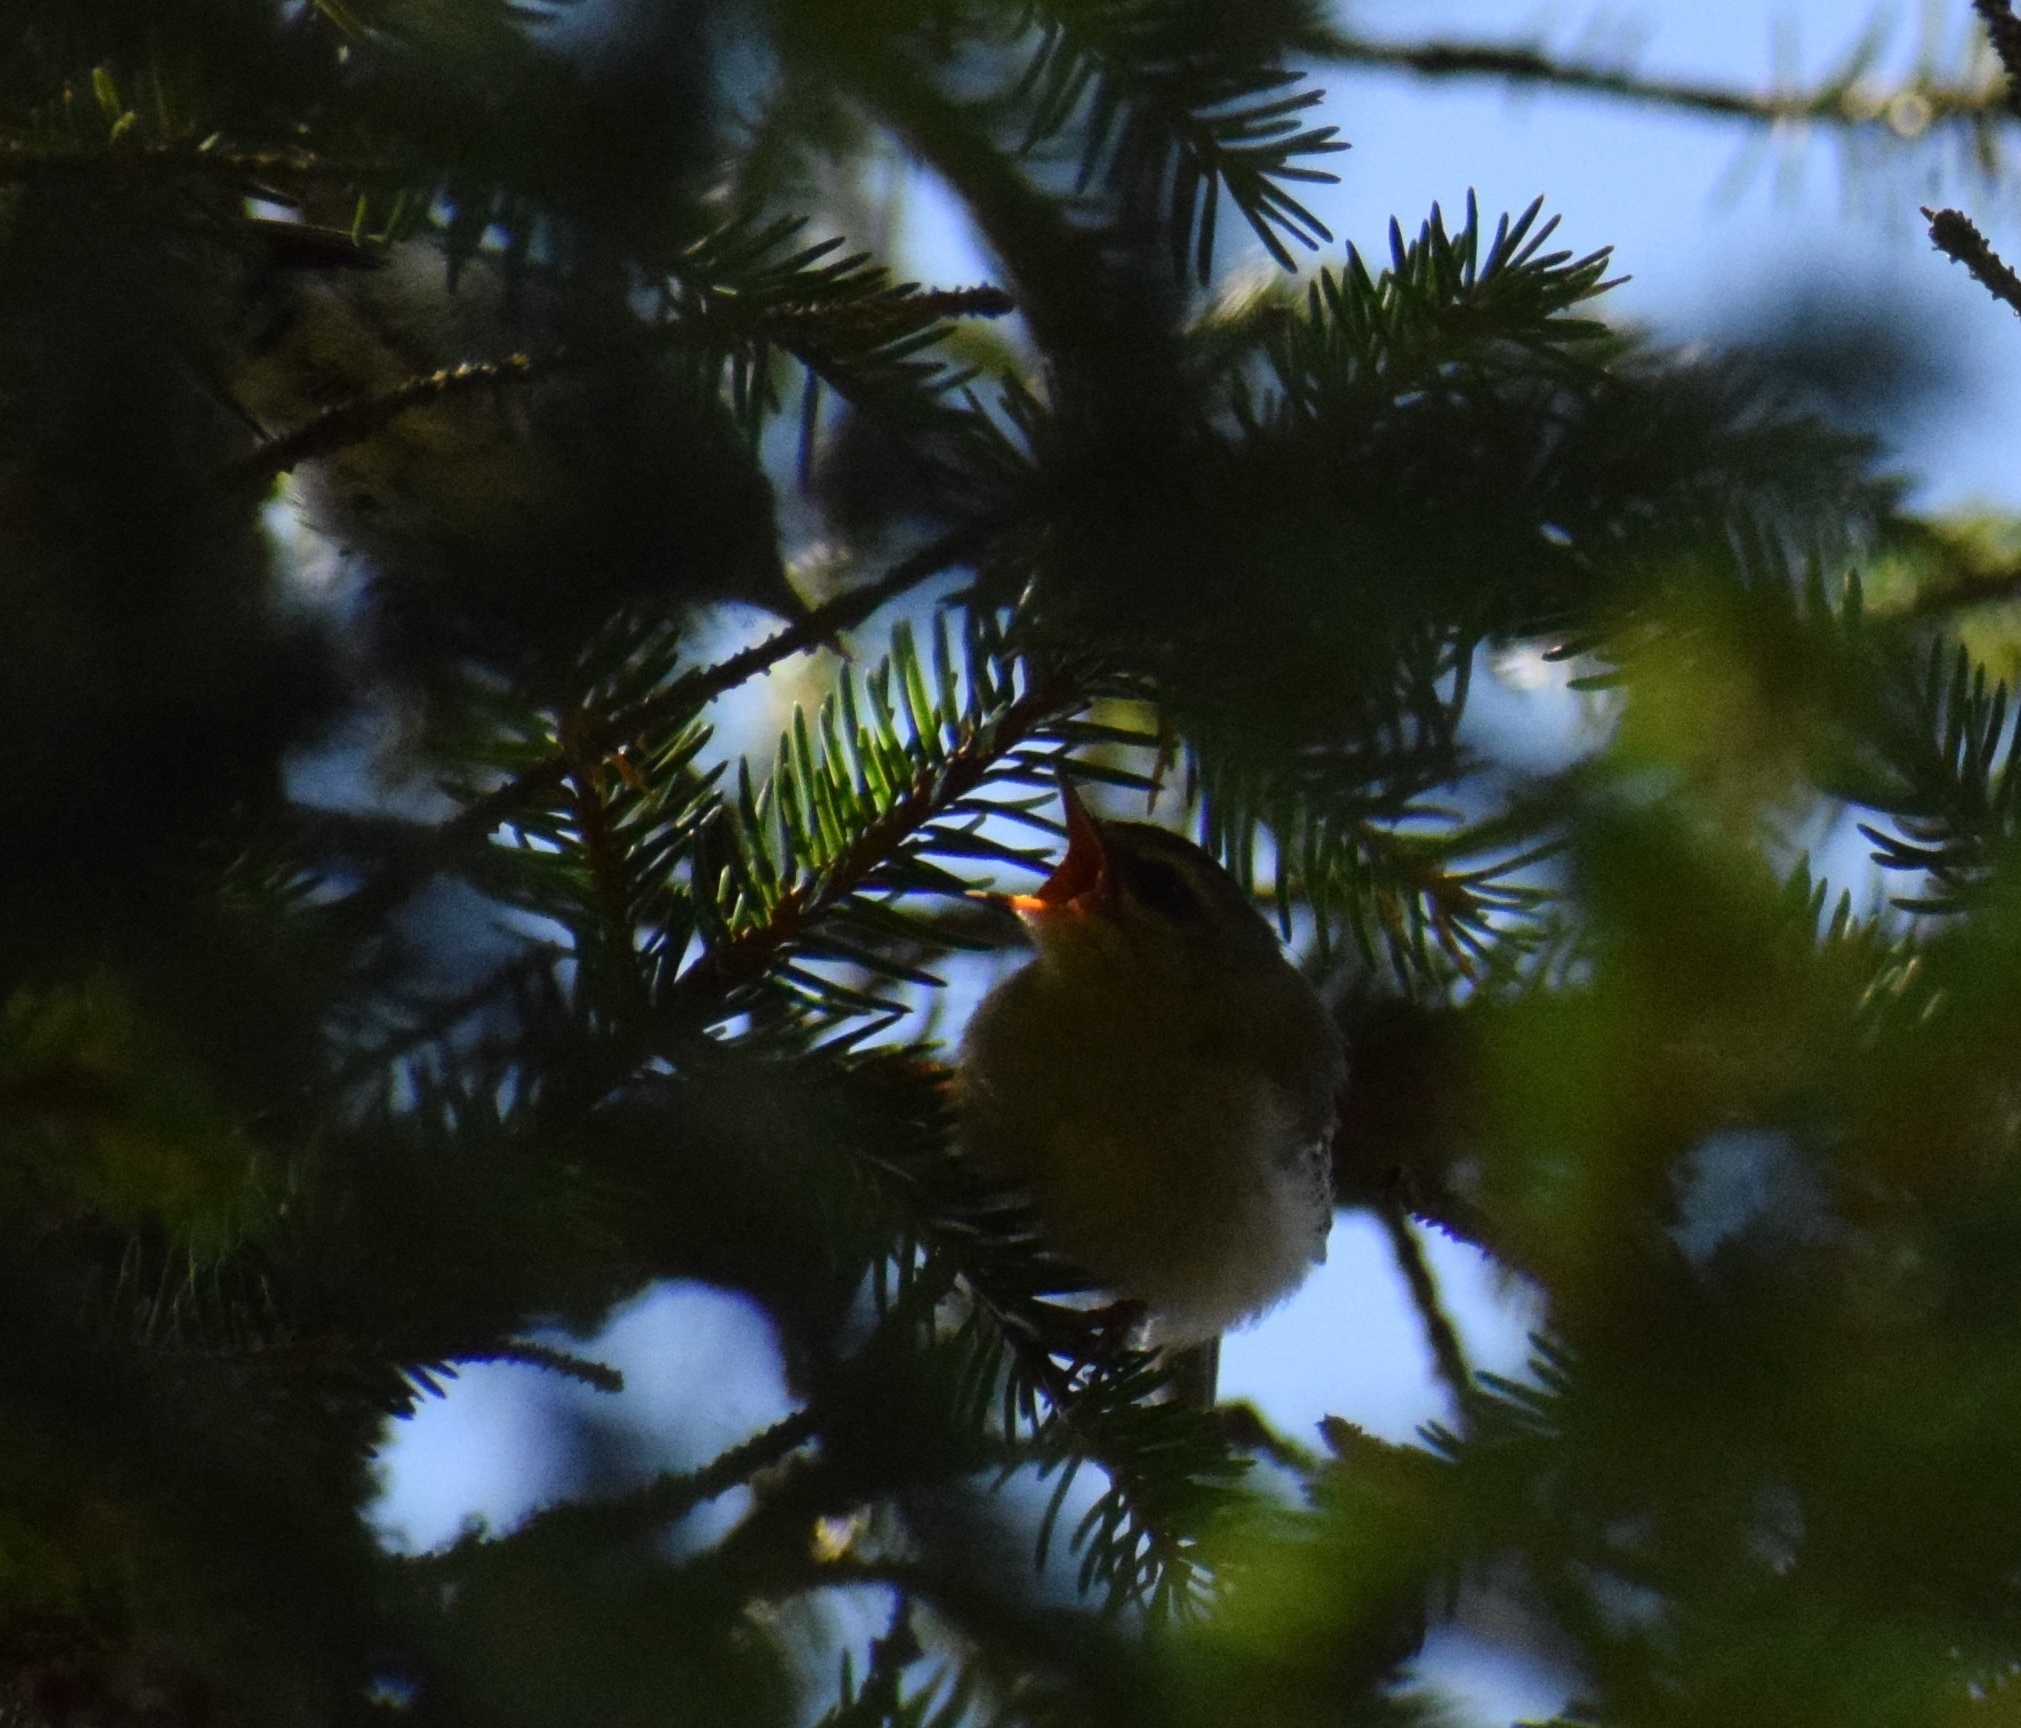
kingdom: Animalia
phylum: Chordata
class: Aves
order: Passeriformes
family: Regulidae
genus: Regulus
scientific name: Regulus ignicapilla
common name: Firecrest
